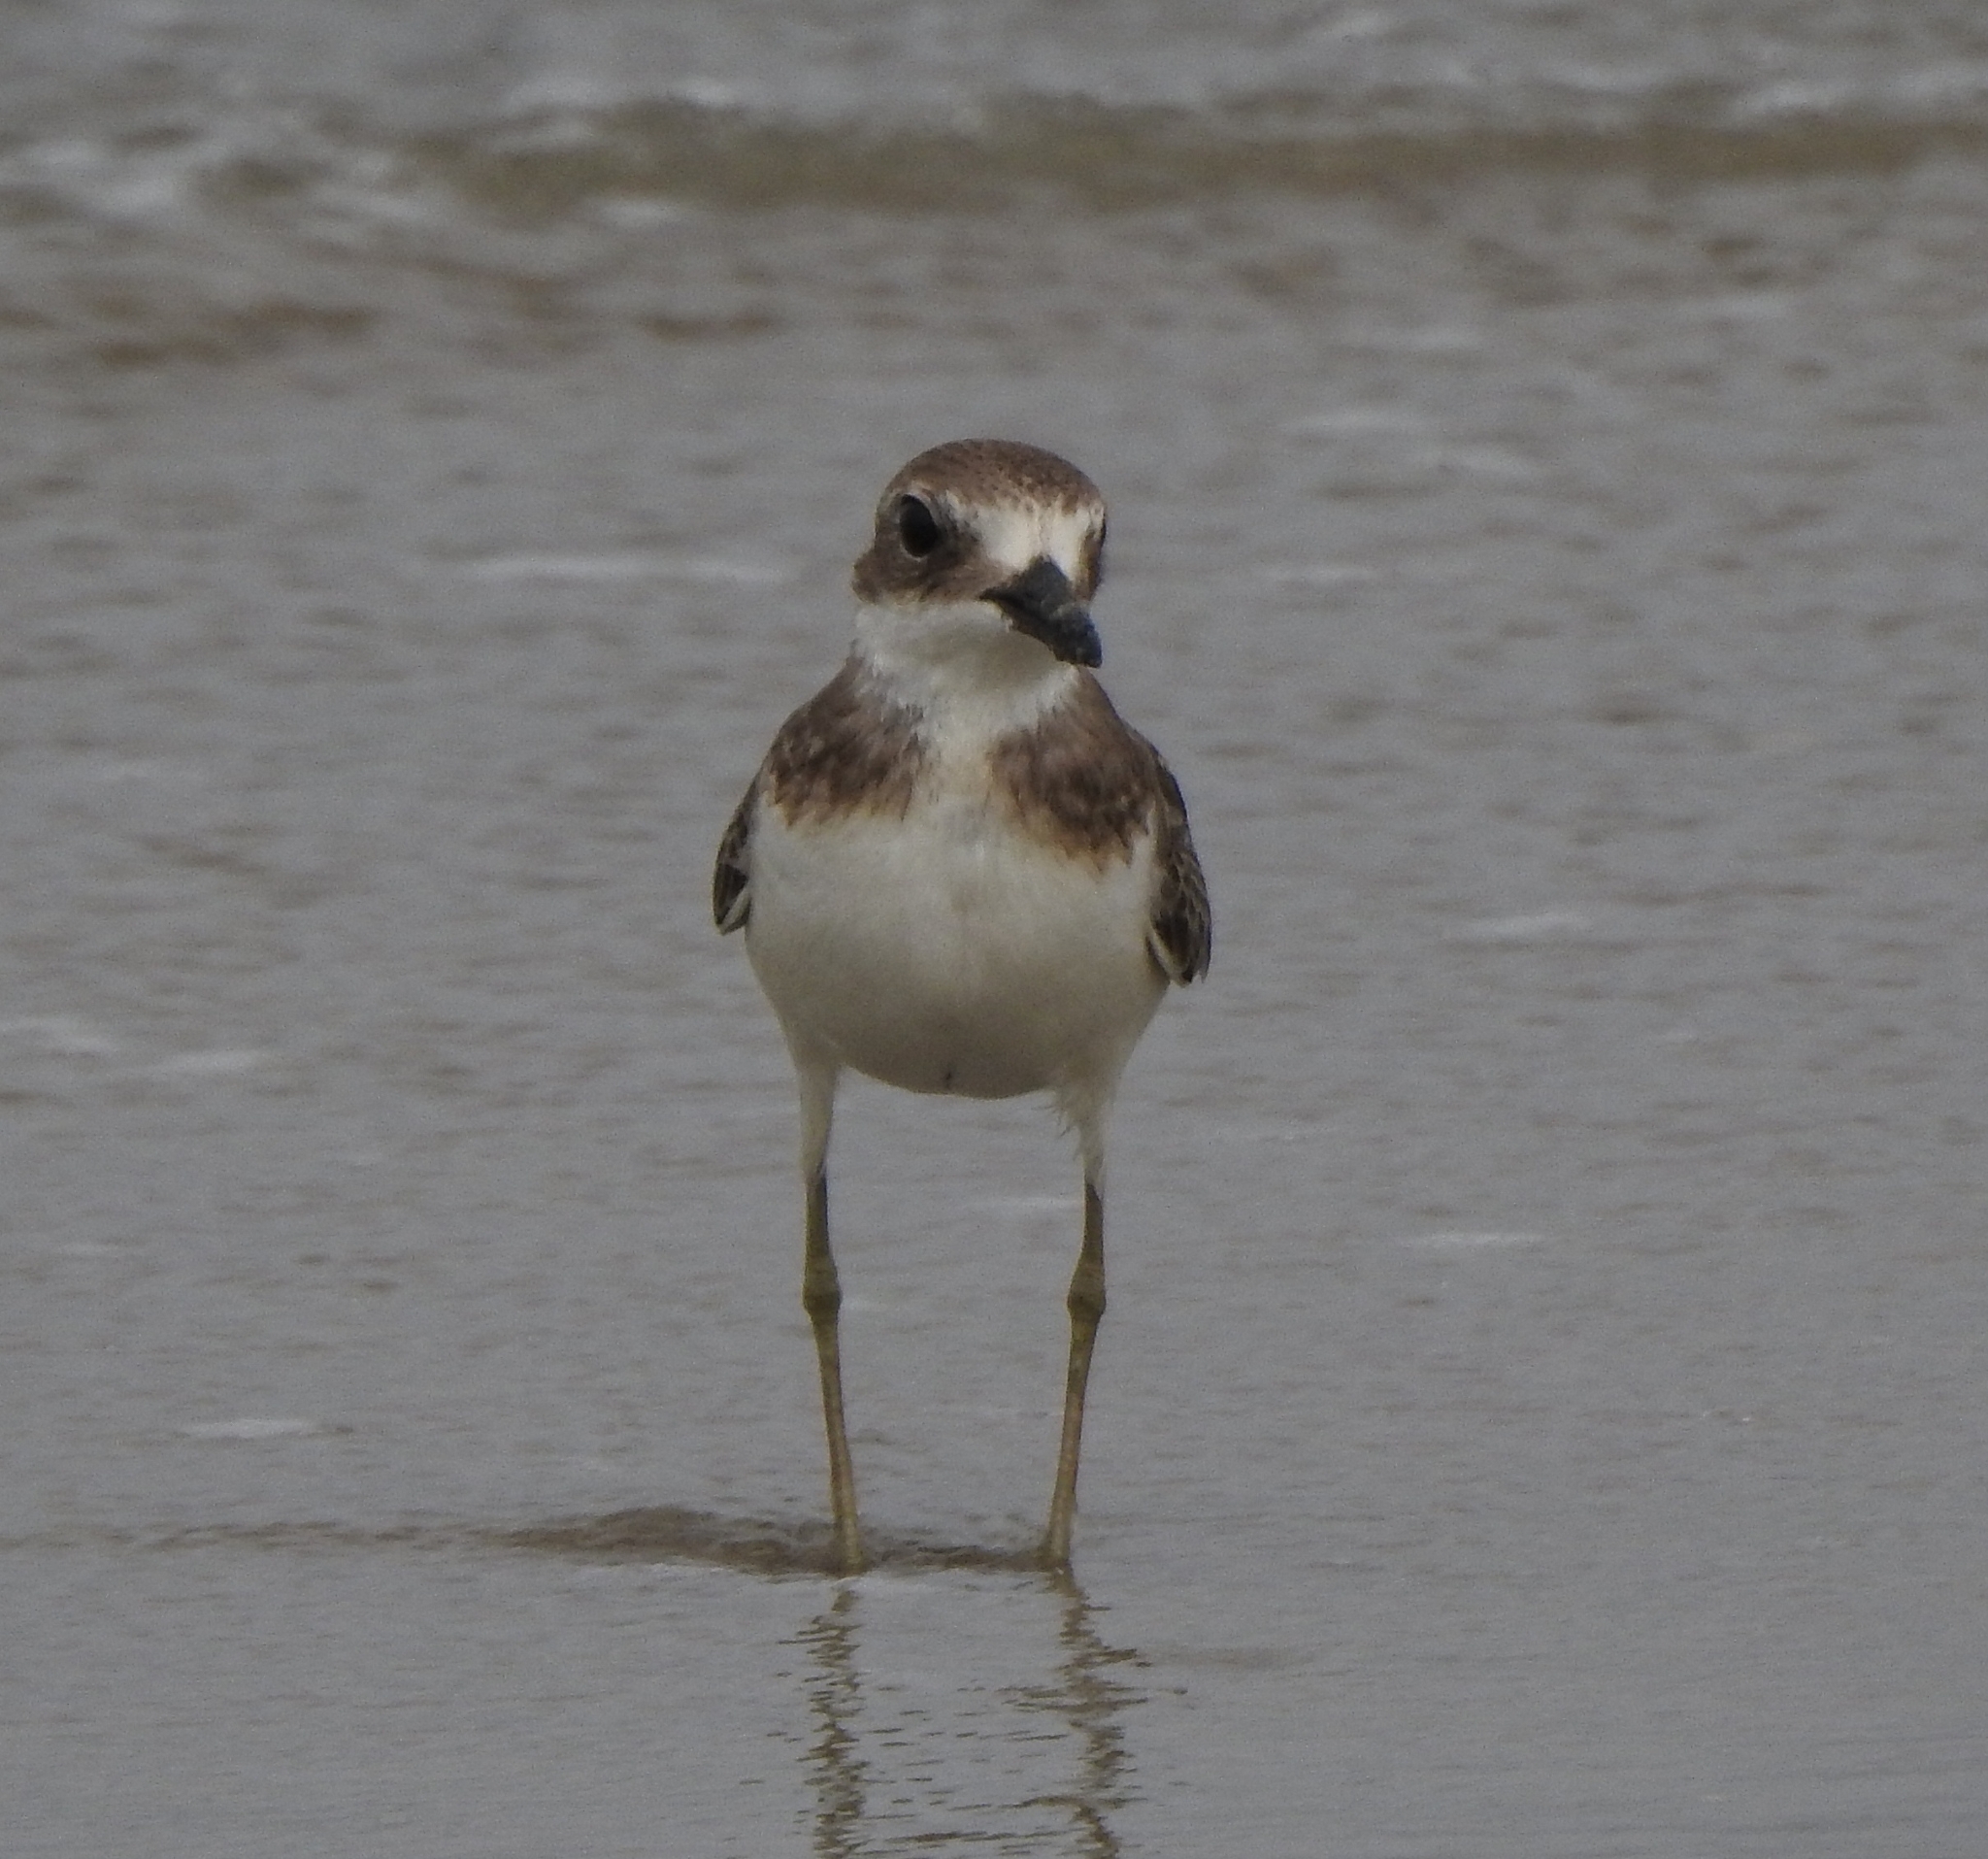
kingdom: Animalia
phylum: Chordata
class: Aves
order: Charadriiformes
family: Charadriidae
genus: Charadrius
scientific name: Charadrius leschenaultii
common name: Greater sand plover
